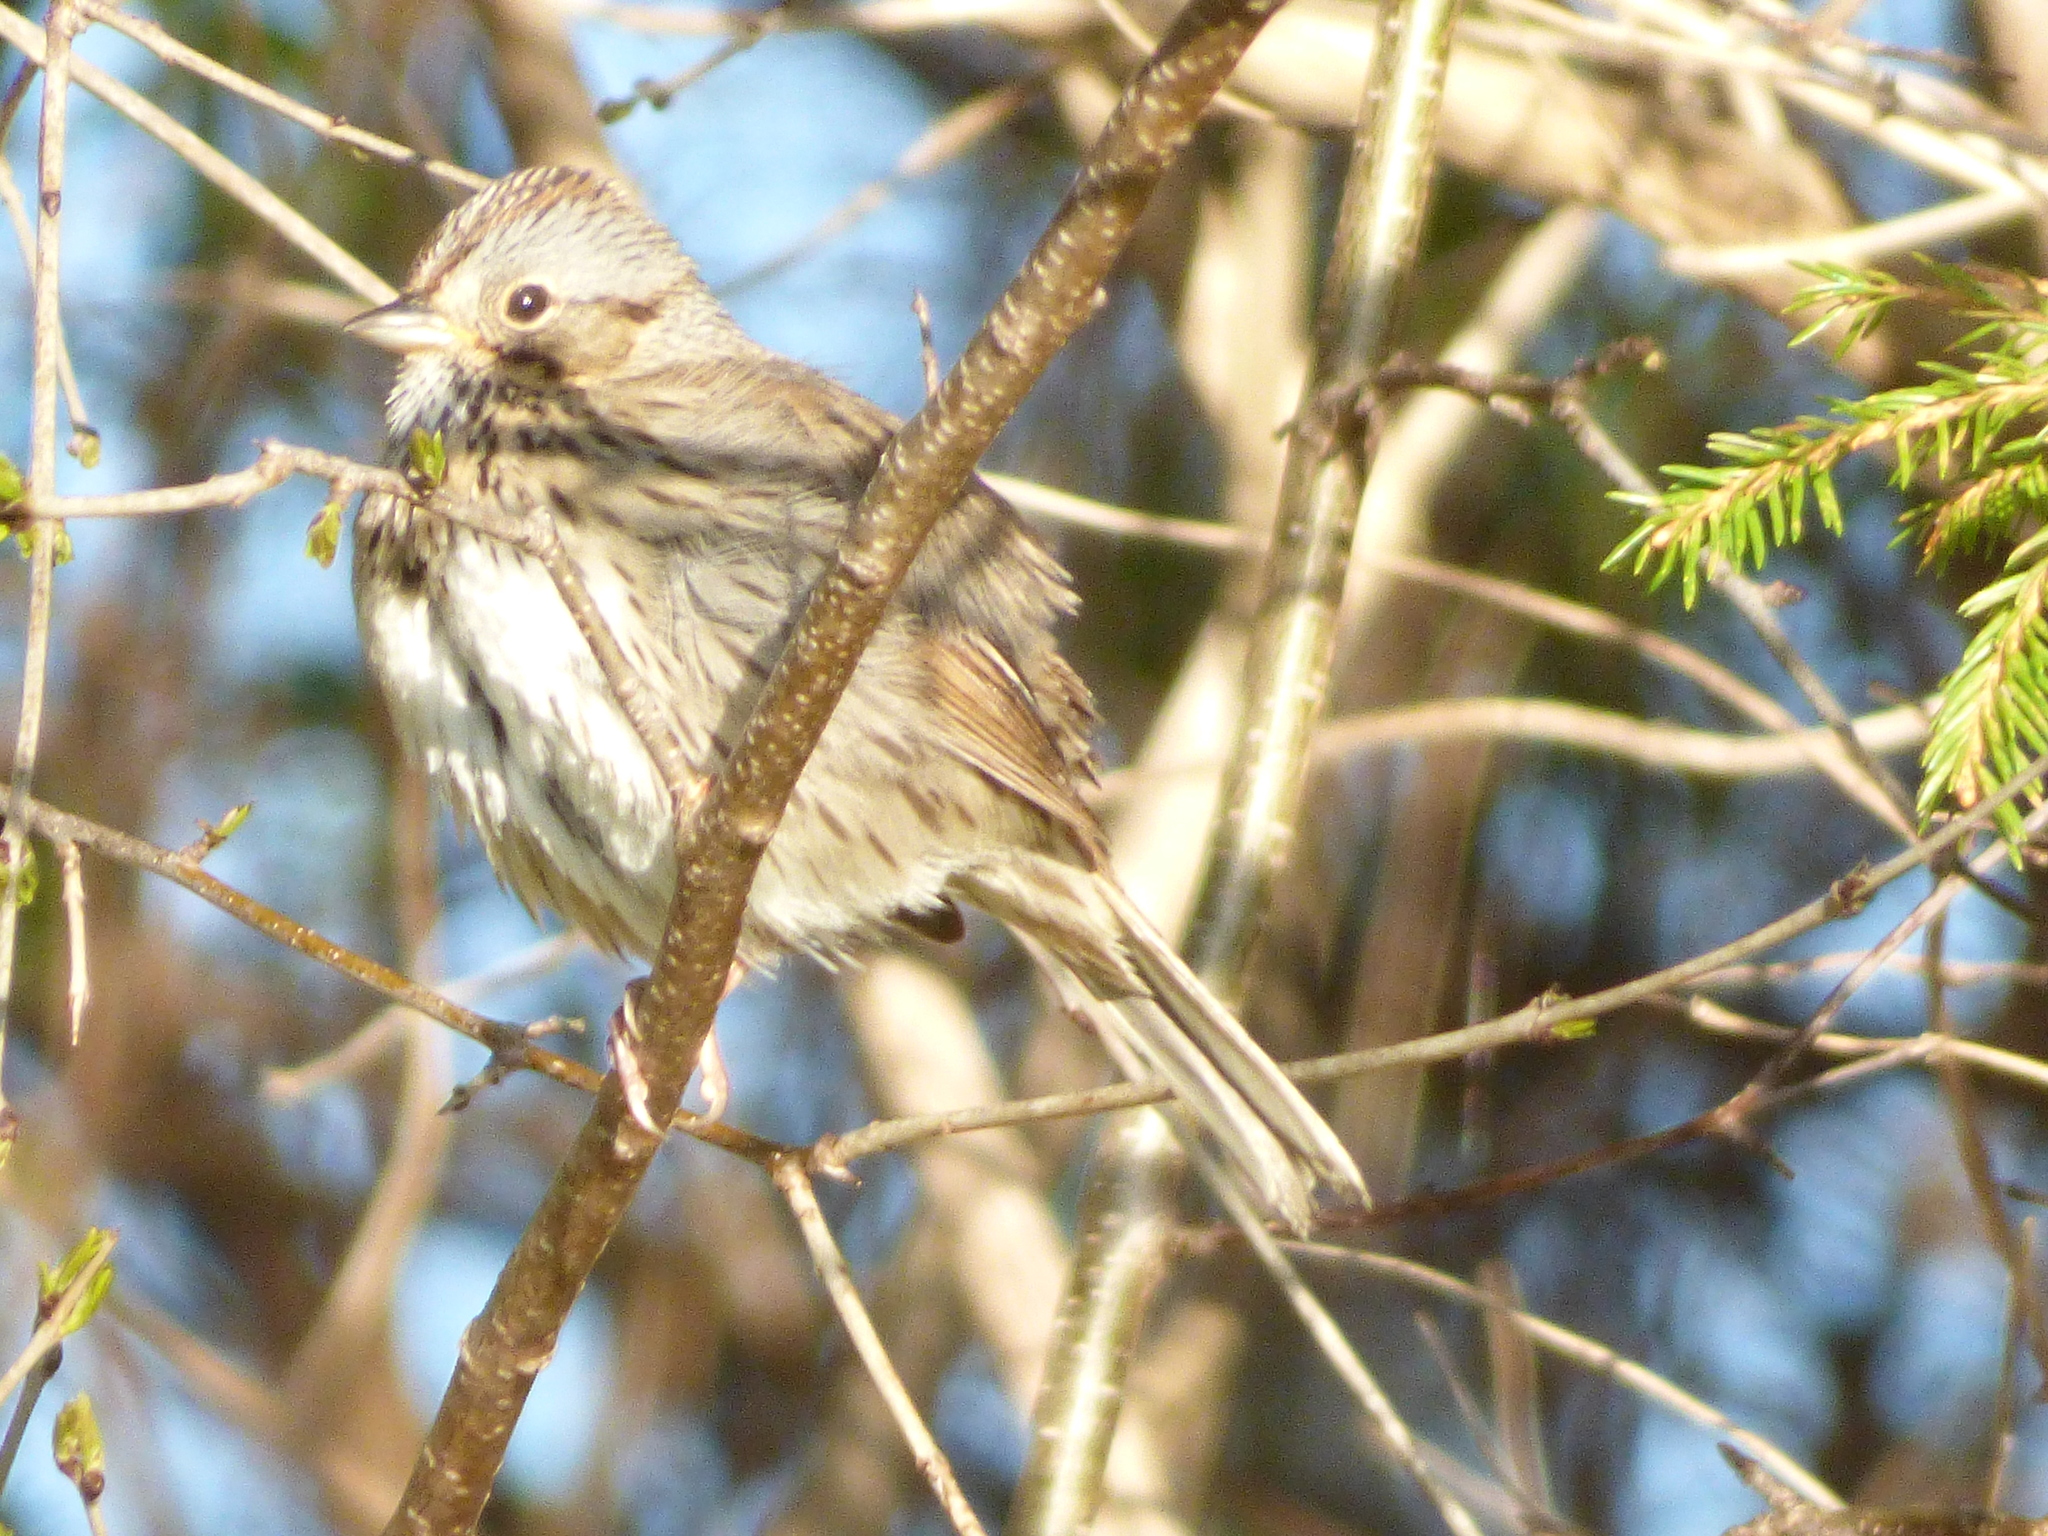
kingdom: Animalia
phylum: Chordata
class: Aves
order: Passeriformes
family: Passerellidae
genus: Melospiza
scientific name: Melospiza lincolnii
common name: Lincoln's sparrow
